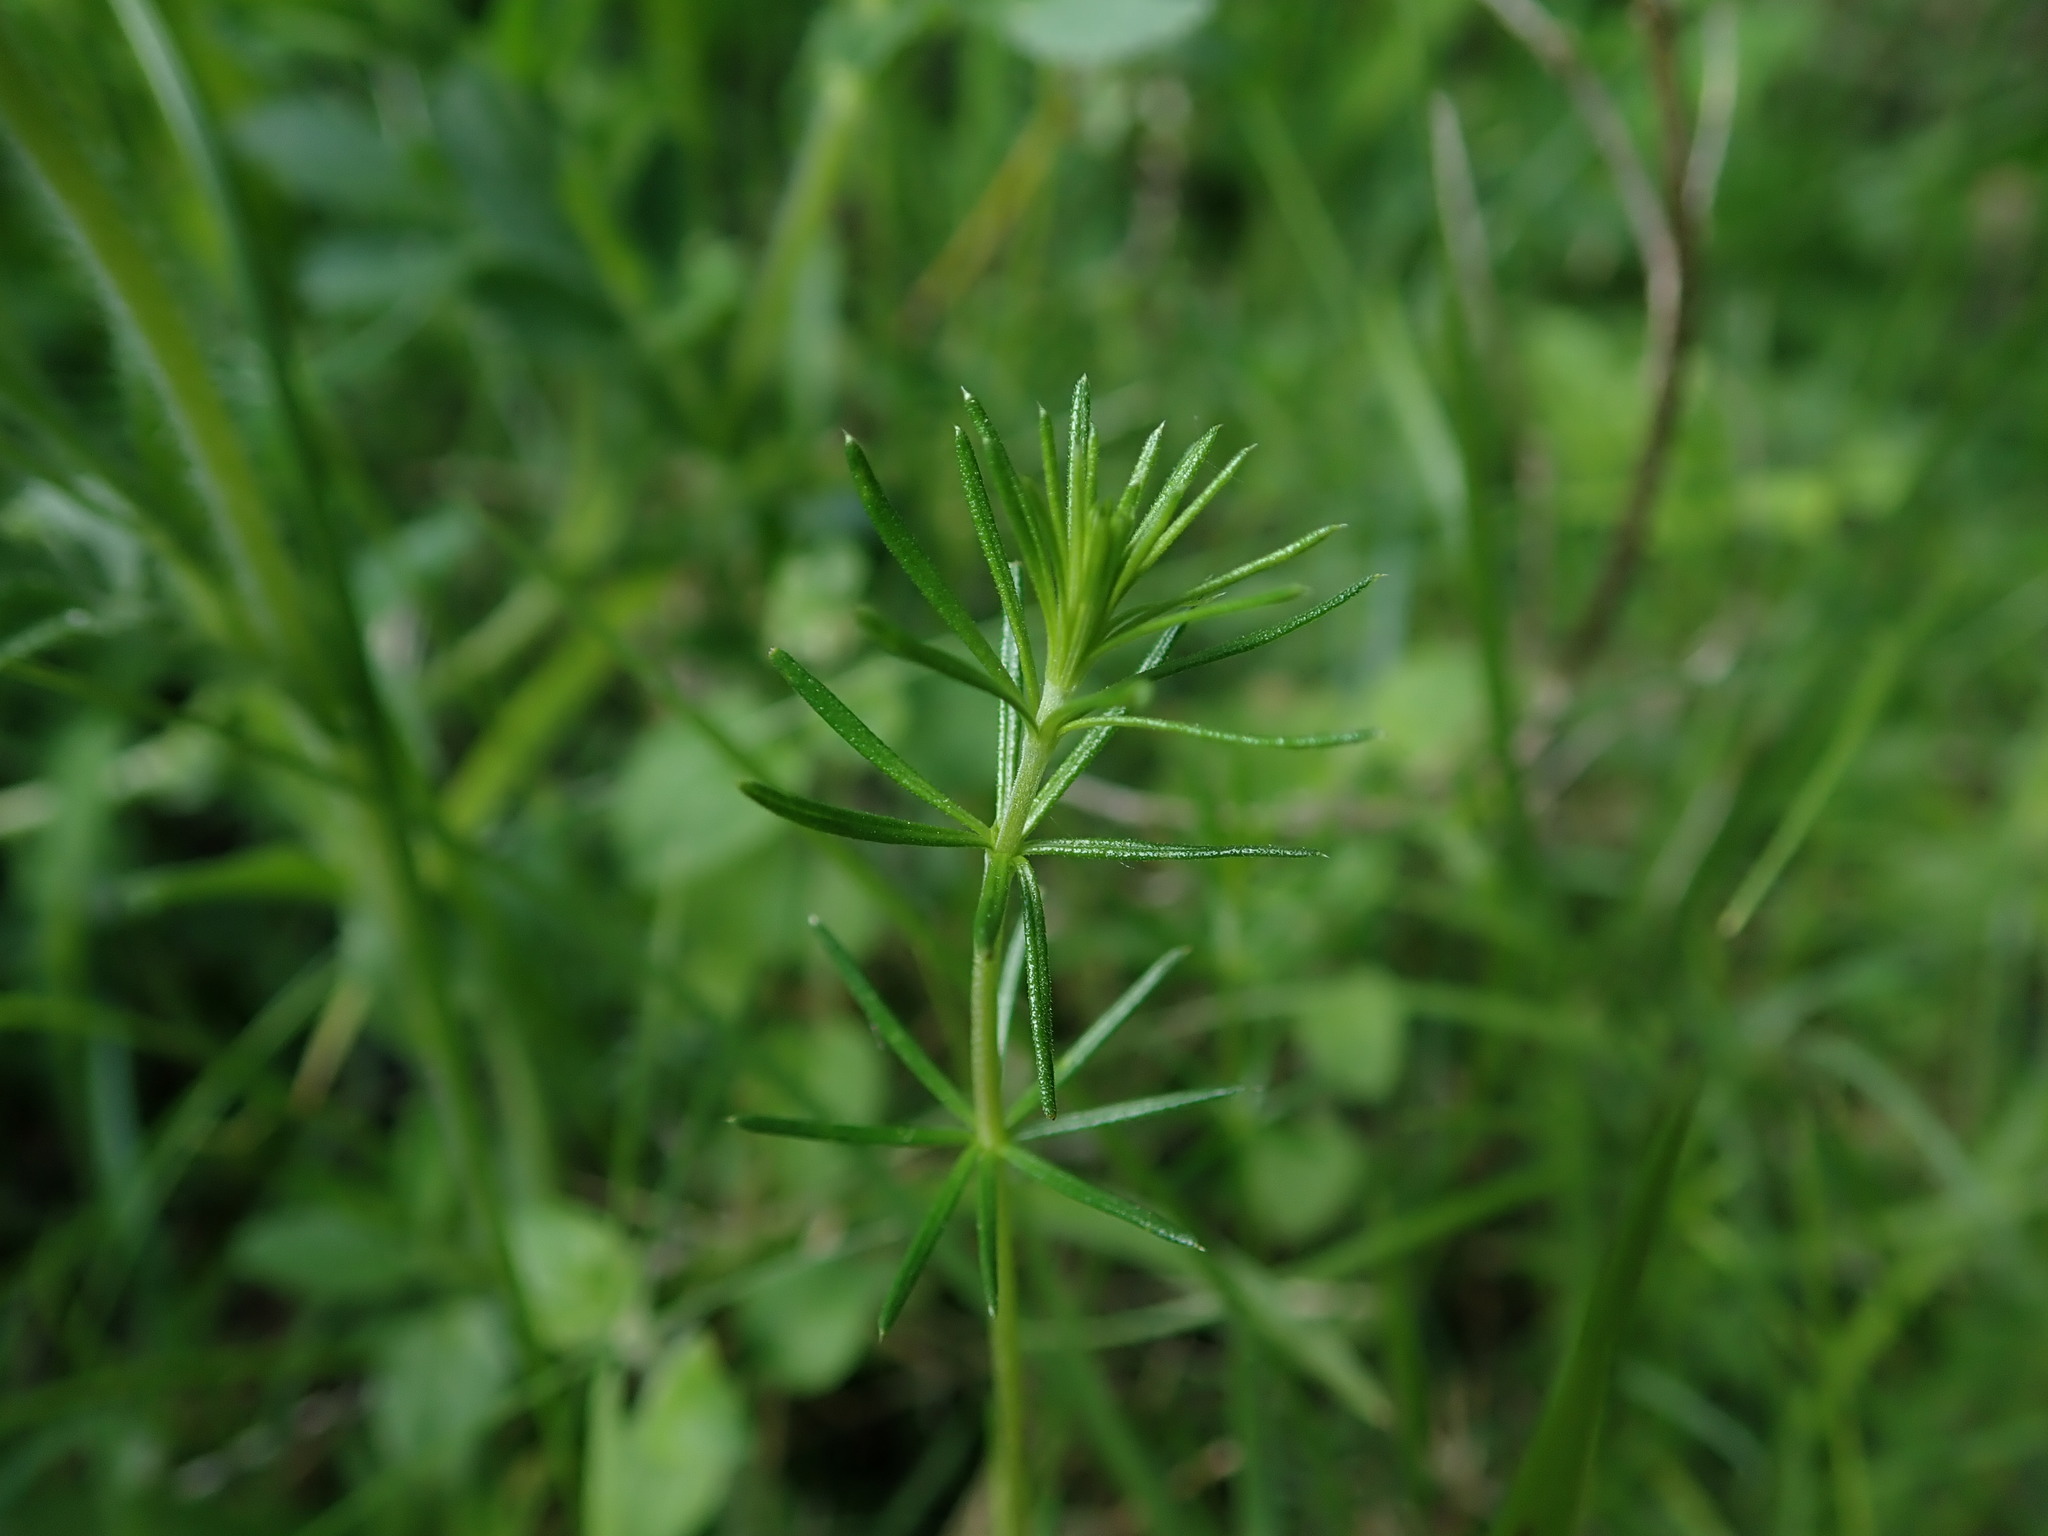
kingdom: Plantae
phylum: Tracheophyta
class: Magnoliopsida
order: Gentianales
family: Rubiaceae
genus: Galium
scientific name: Galium verum
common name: Lady's bedstraw
